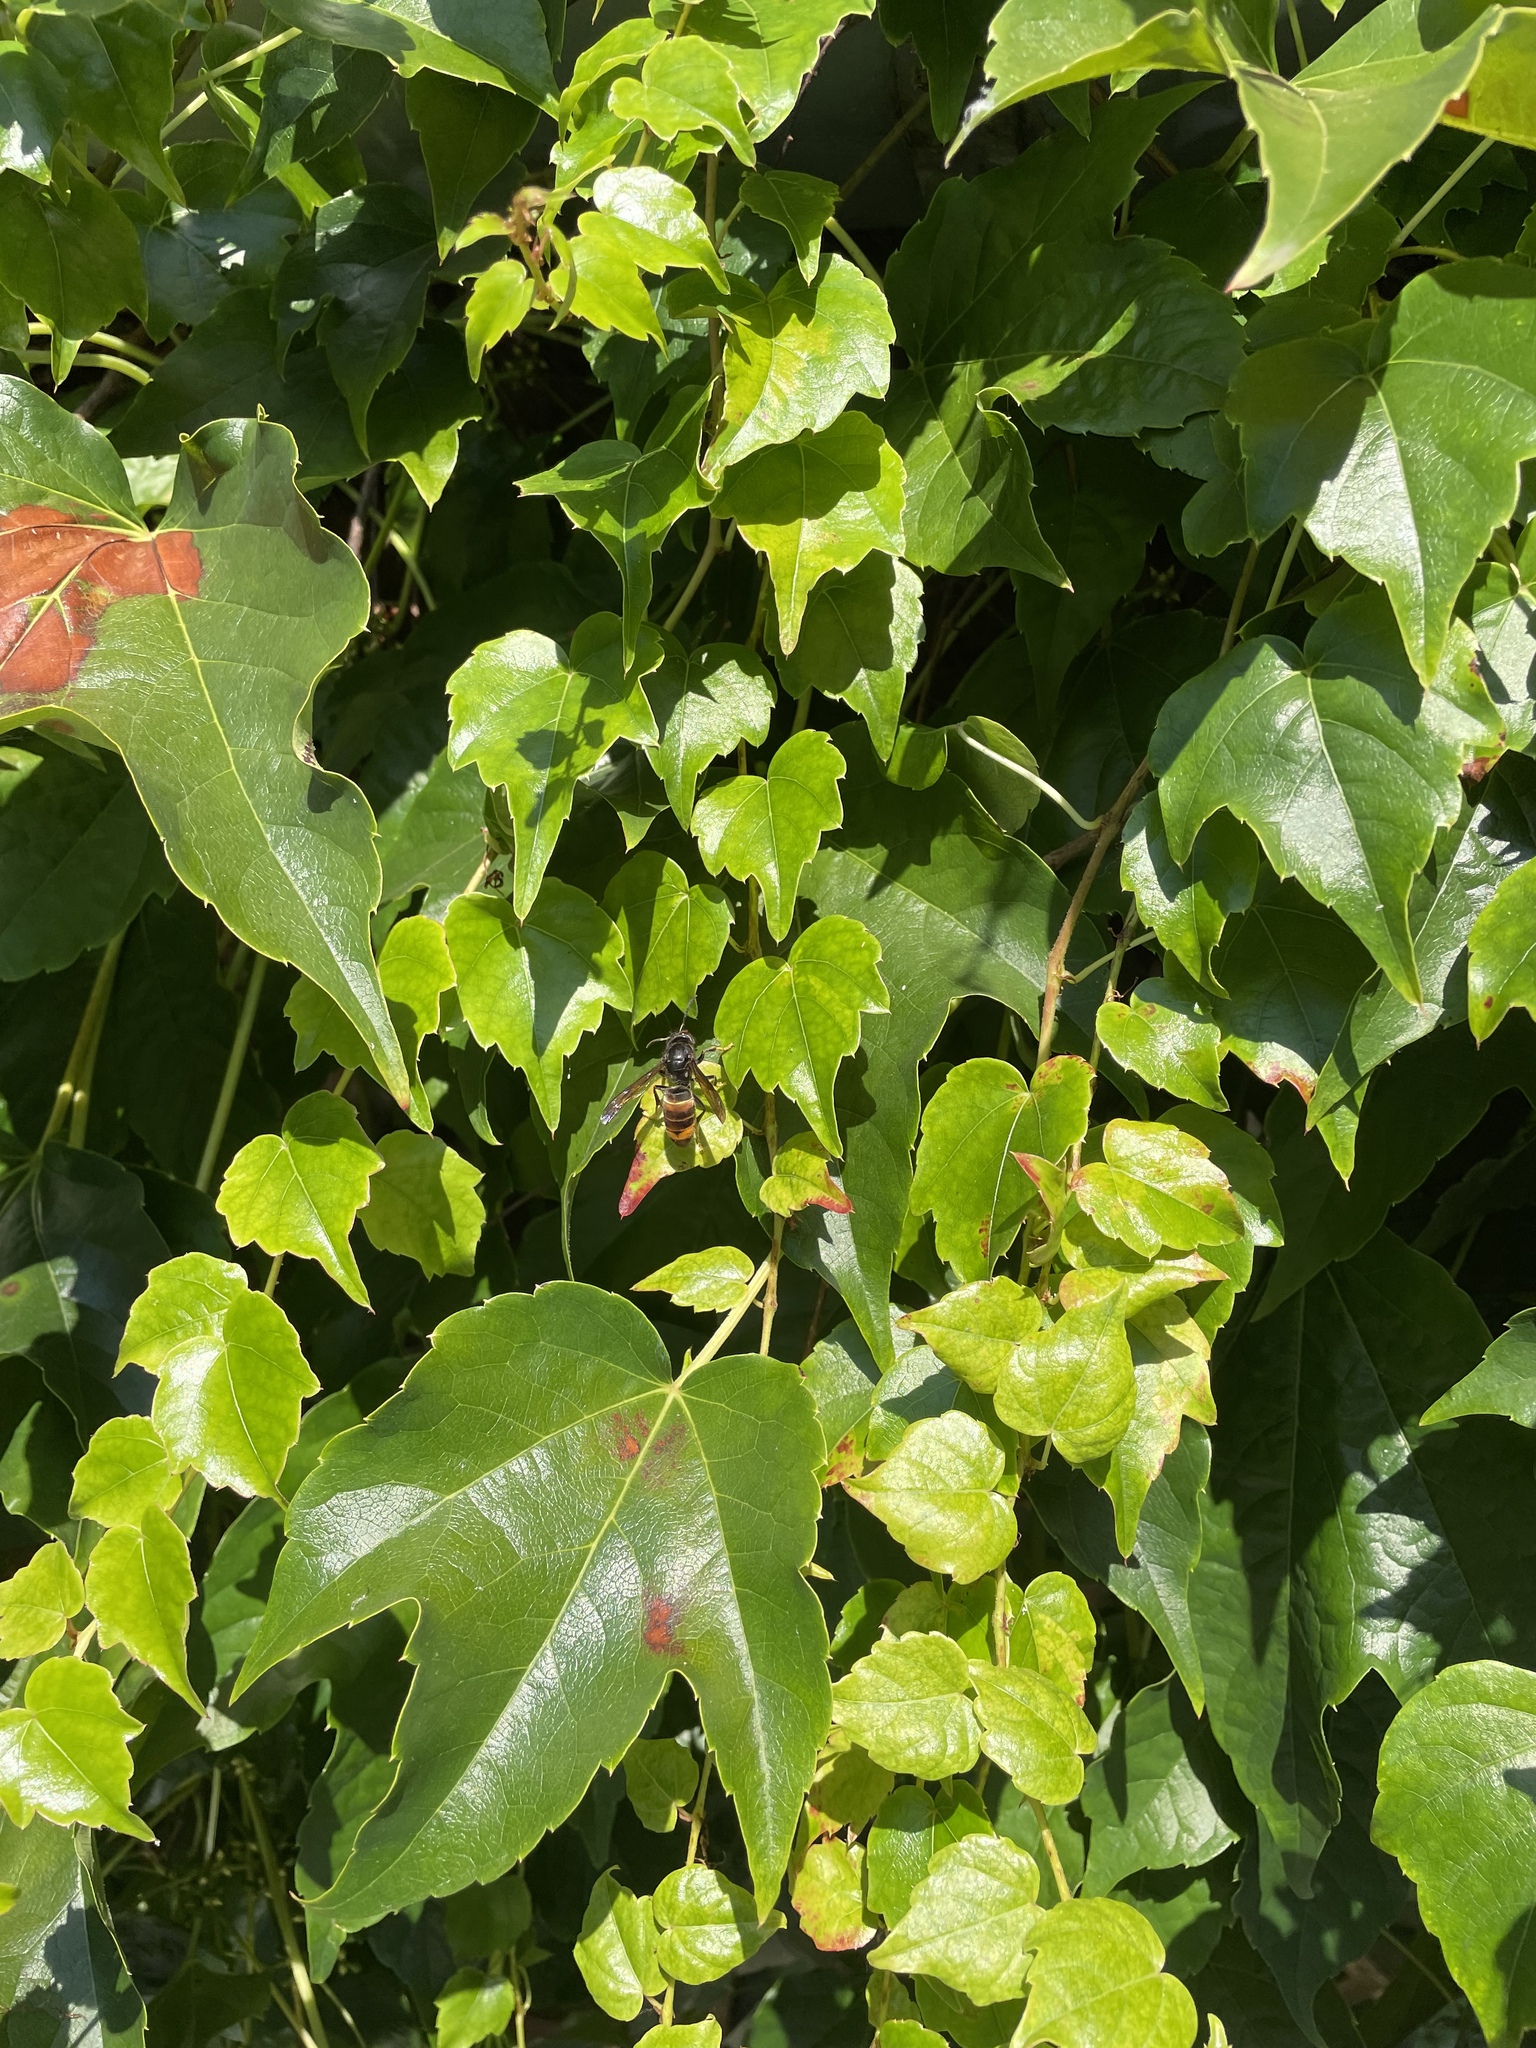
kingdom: Animalia
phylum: Arthropoda
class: Insecta
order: Hymenoptera
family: Vespidae
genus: Vespa
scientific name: Vespa velutina
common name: Asian hornet
